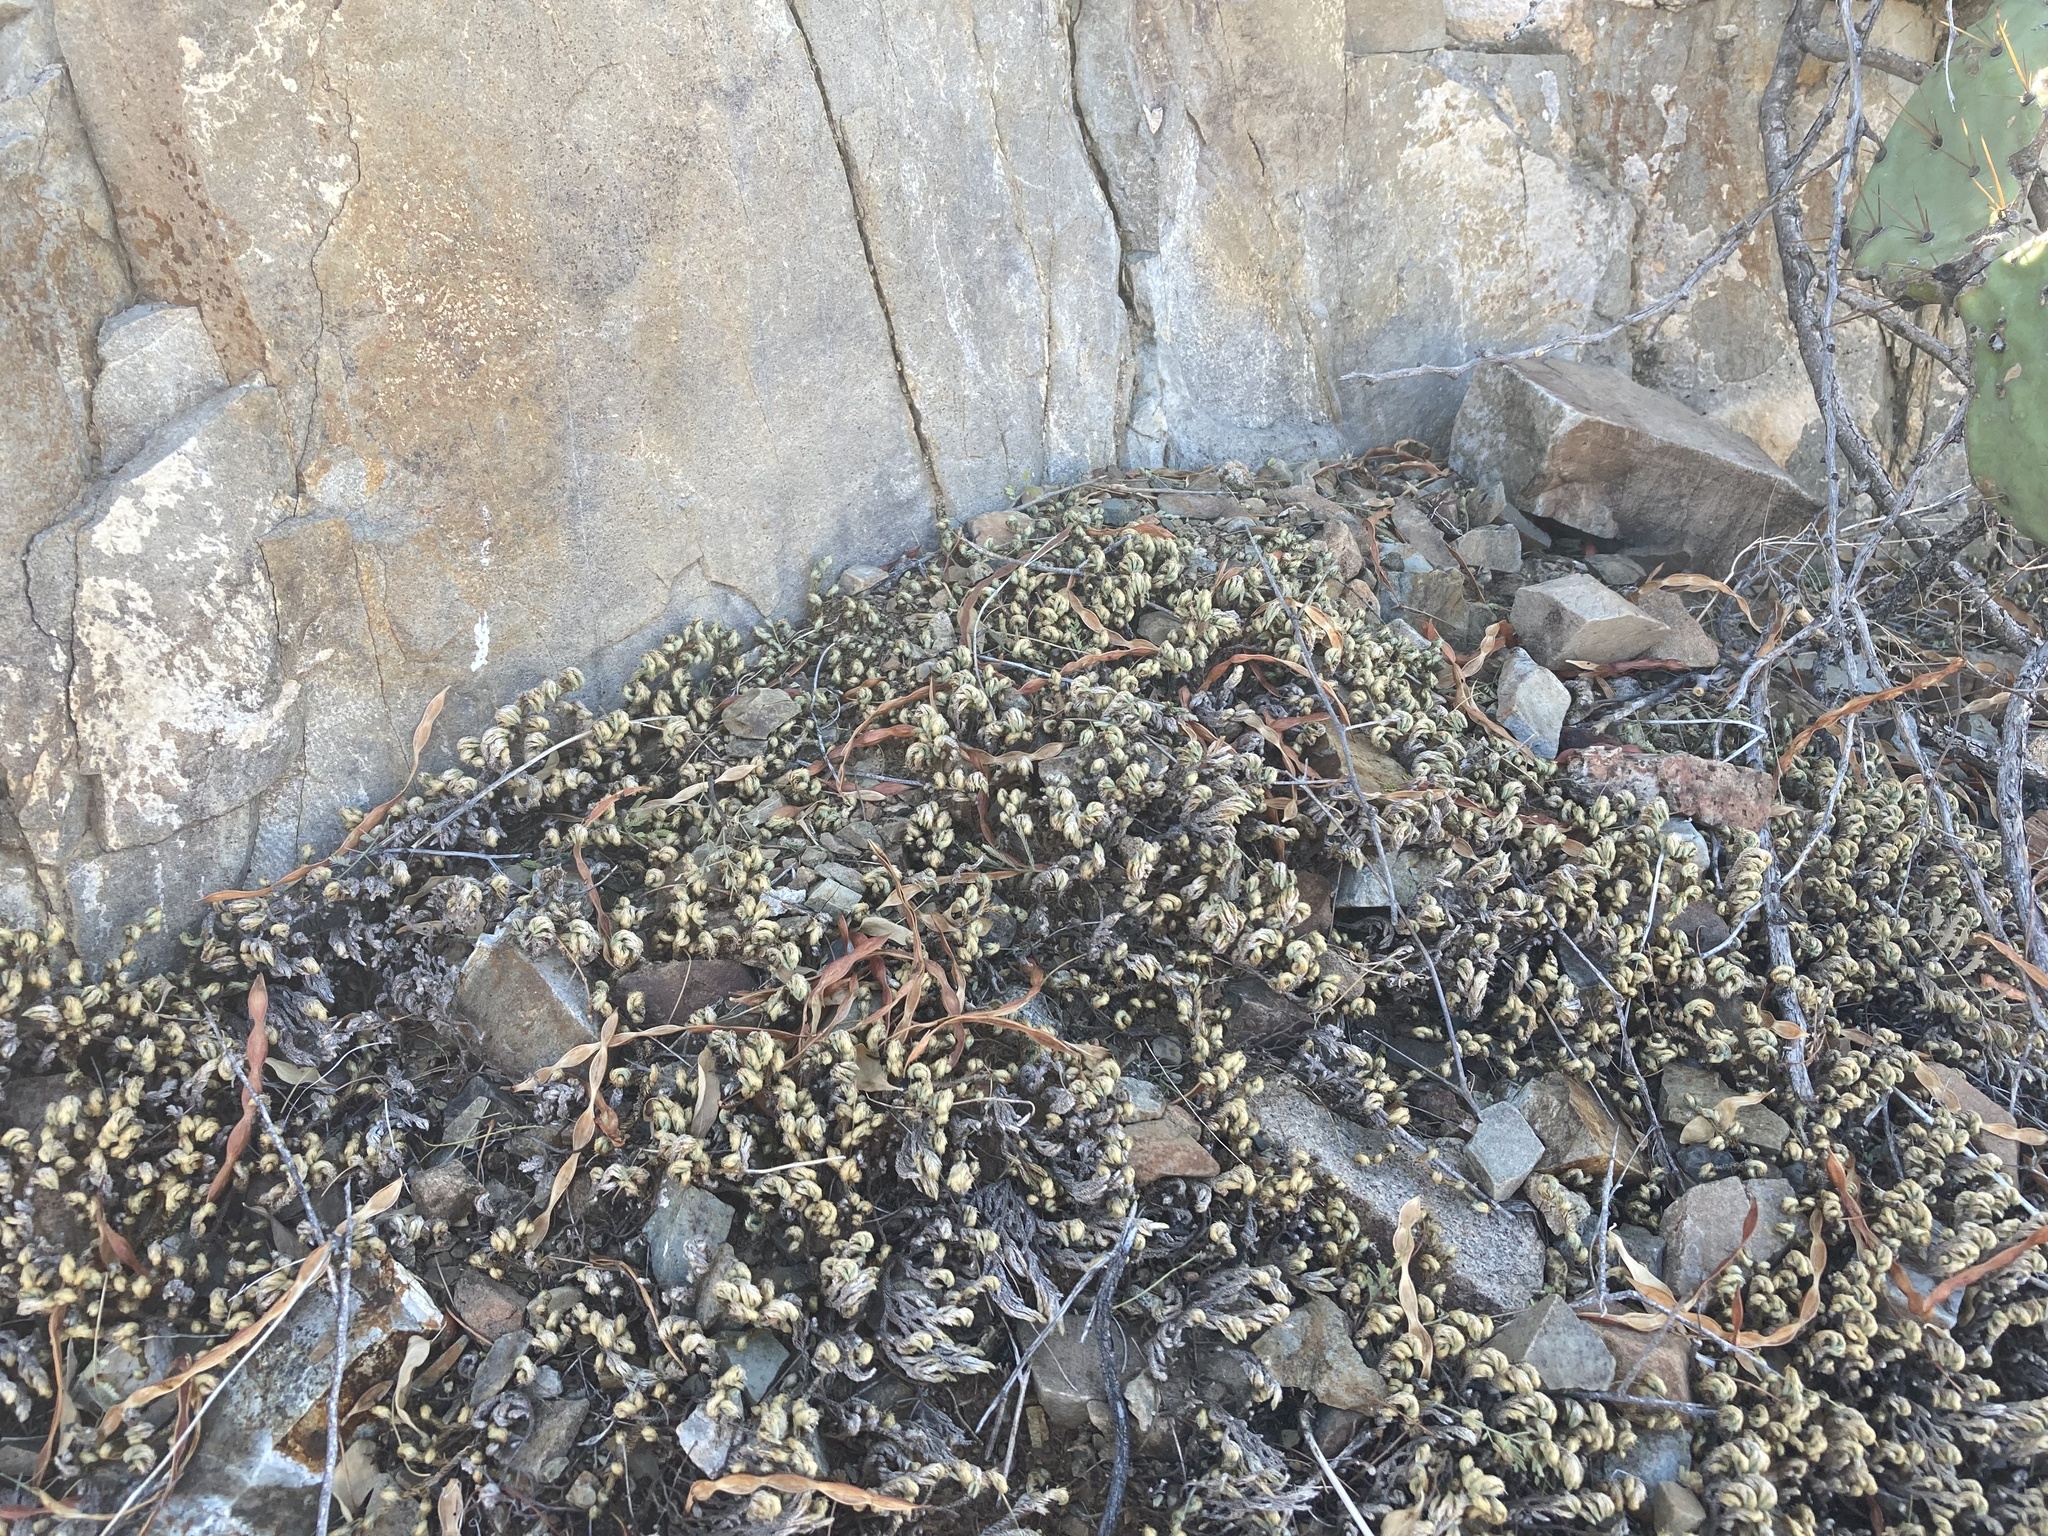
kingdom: Plantae
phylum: Tracheophyta
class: Lycopodiopsida
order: Selaginellales
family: Selaginellaceae
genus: Selaginella
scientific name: Selaginella arizonica
